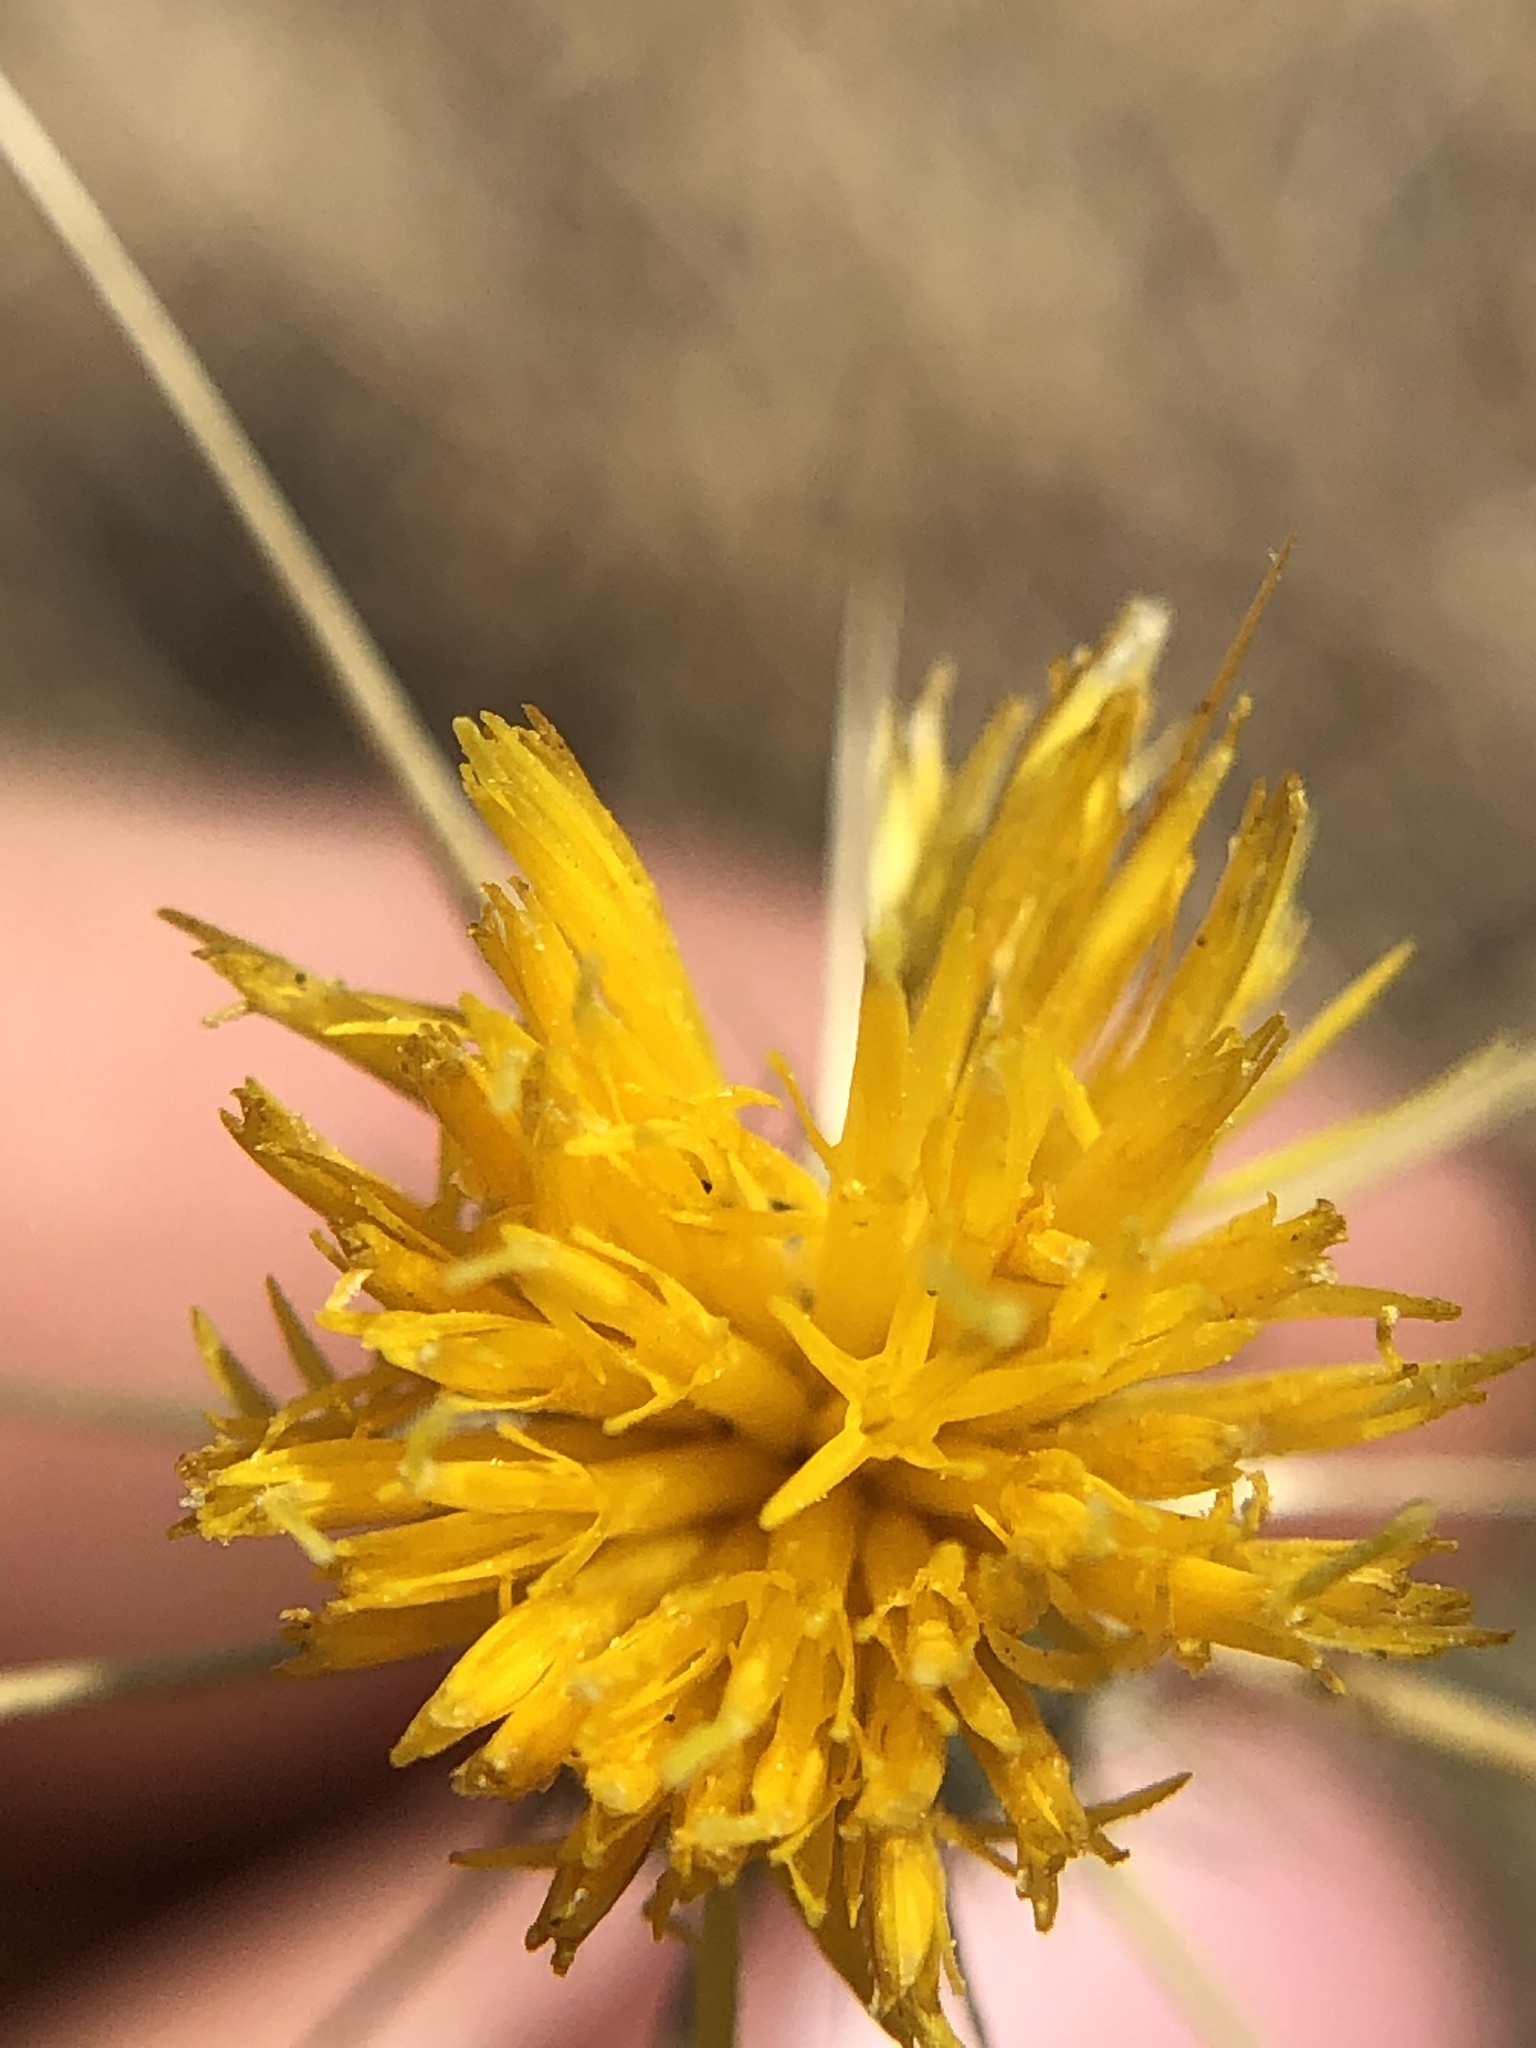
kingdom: Plantae
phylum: Tracheophyta
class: Magnoliopsida
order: Asterales
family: Asteraceae
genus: Centaurea
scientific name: Centaurea solstitialis
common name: Yellow star-thistle
